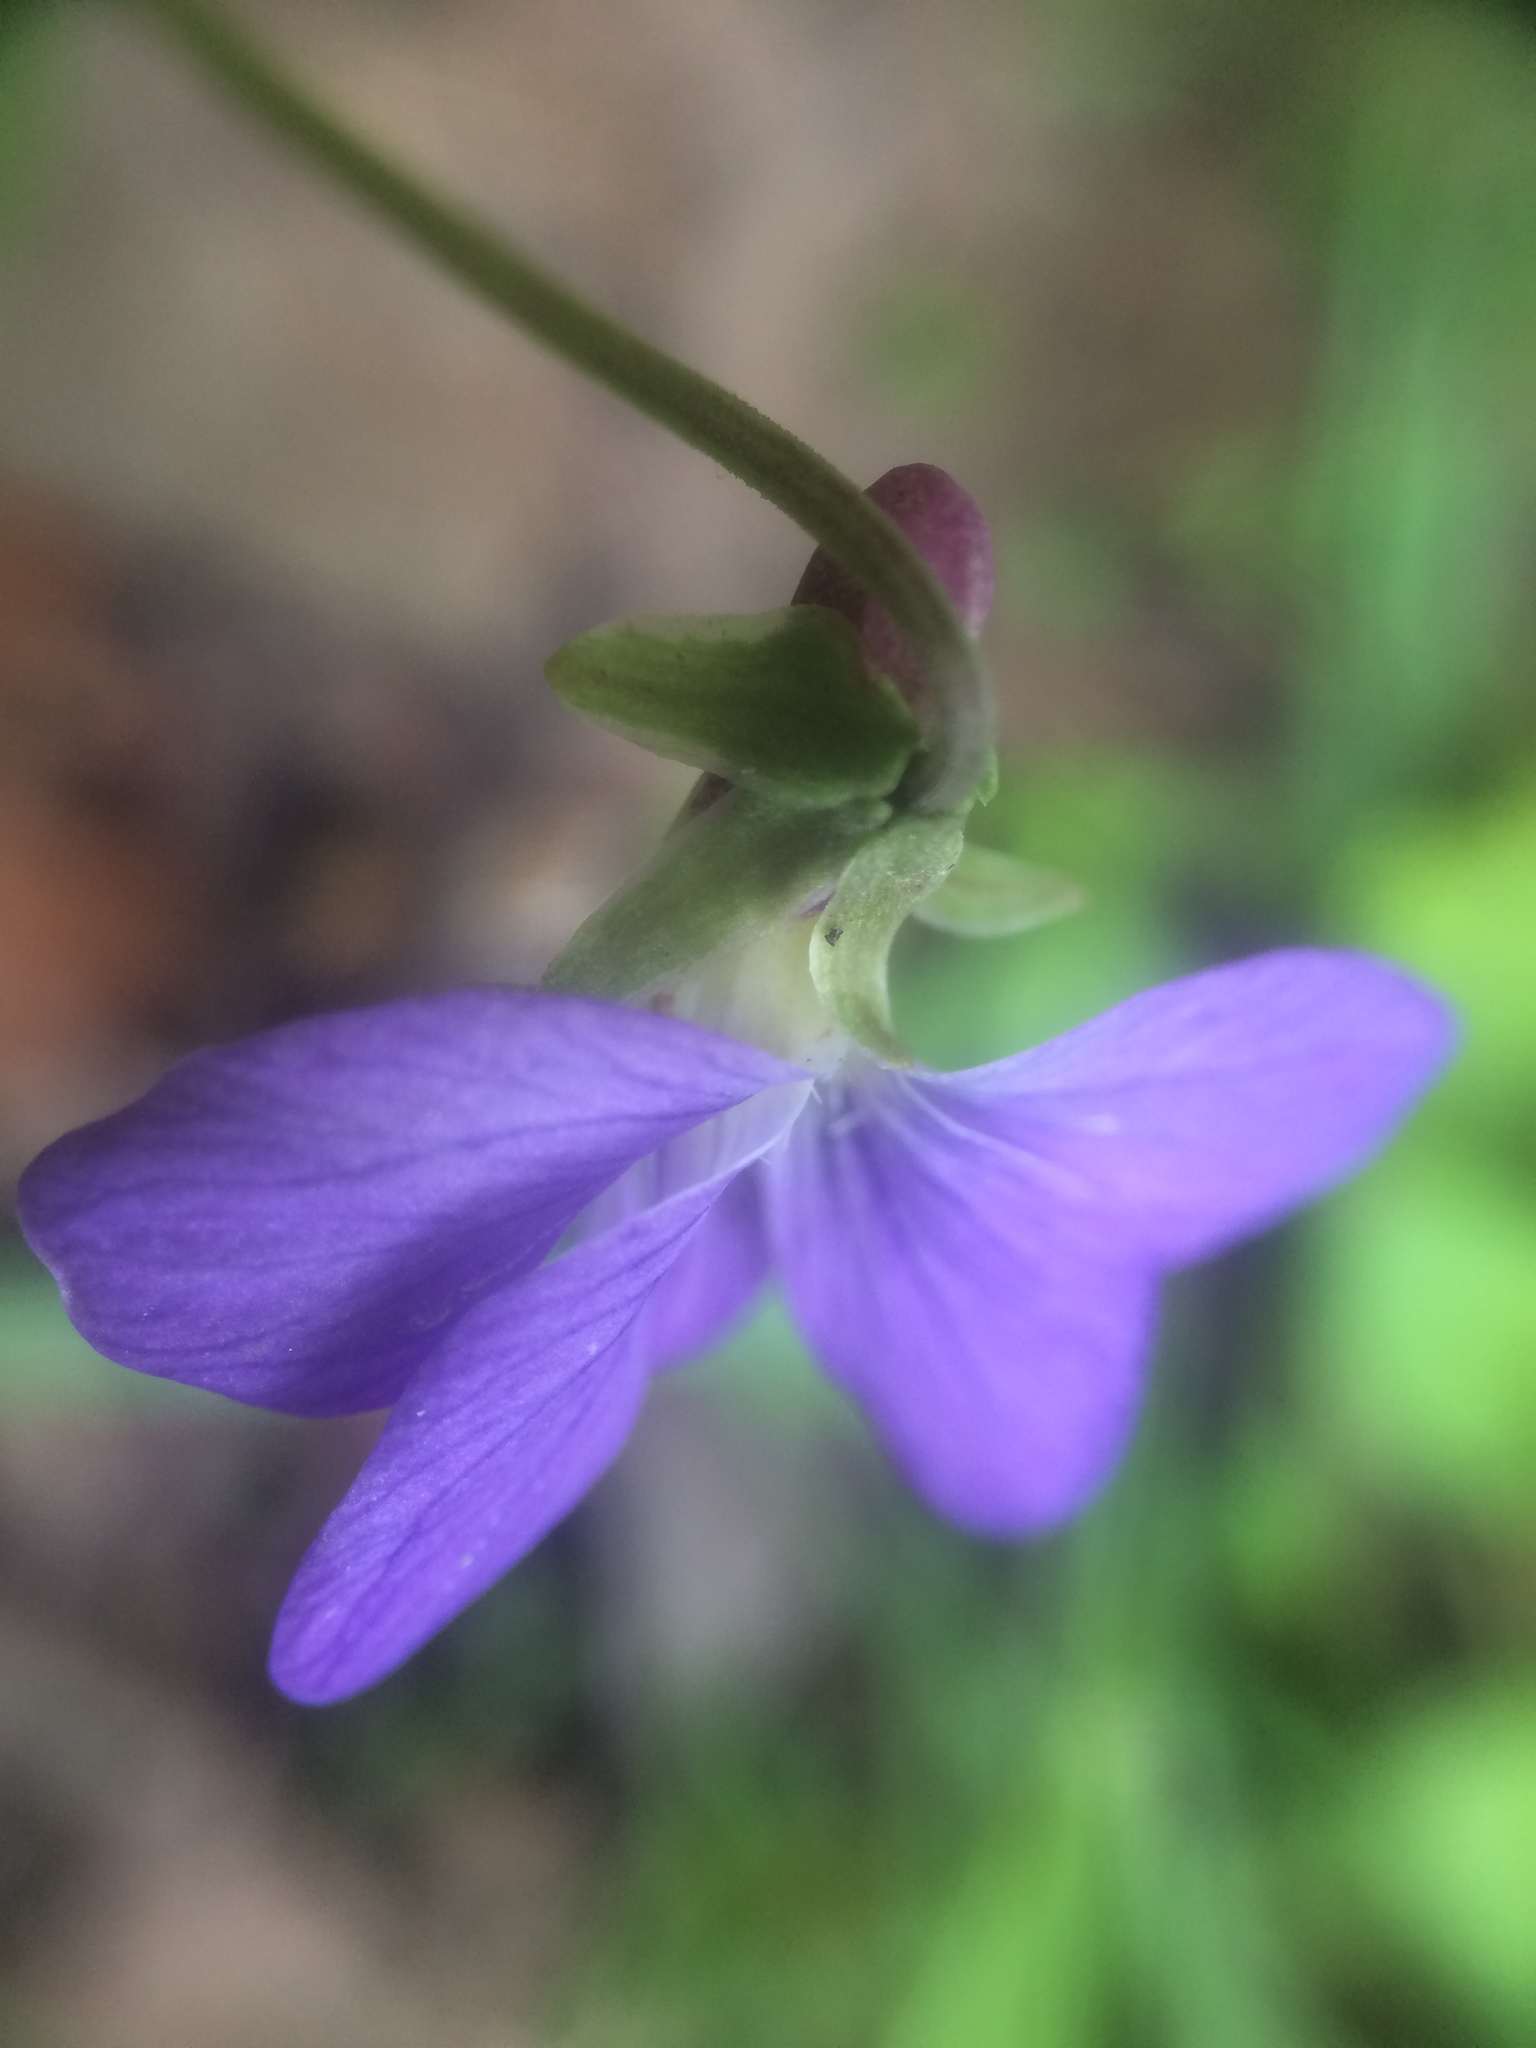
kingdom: Plantae
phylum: Tracheophyta
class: Magnoliopsida
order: Malpighiales
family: Violaceae
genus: Viola
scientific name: Viola nephrophylla
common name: Blue meadow violet
